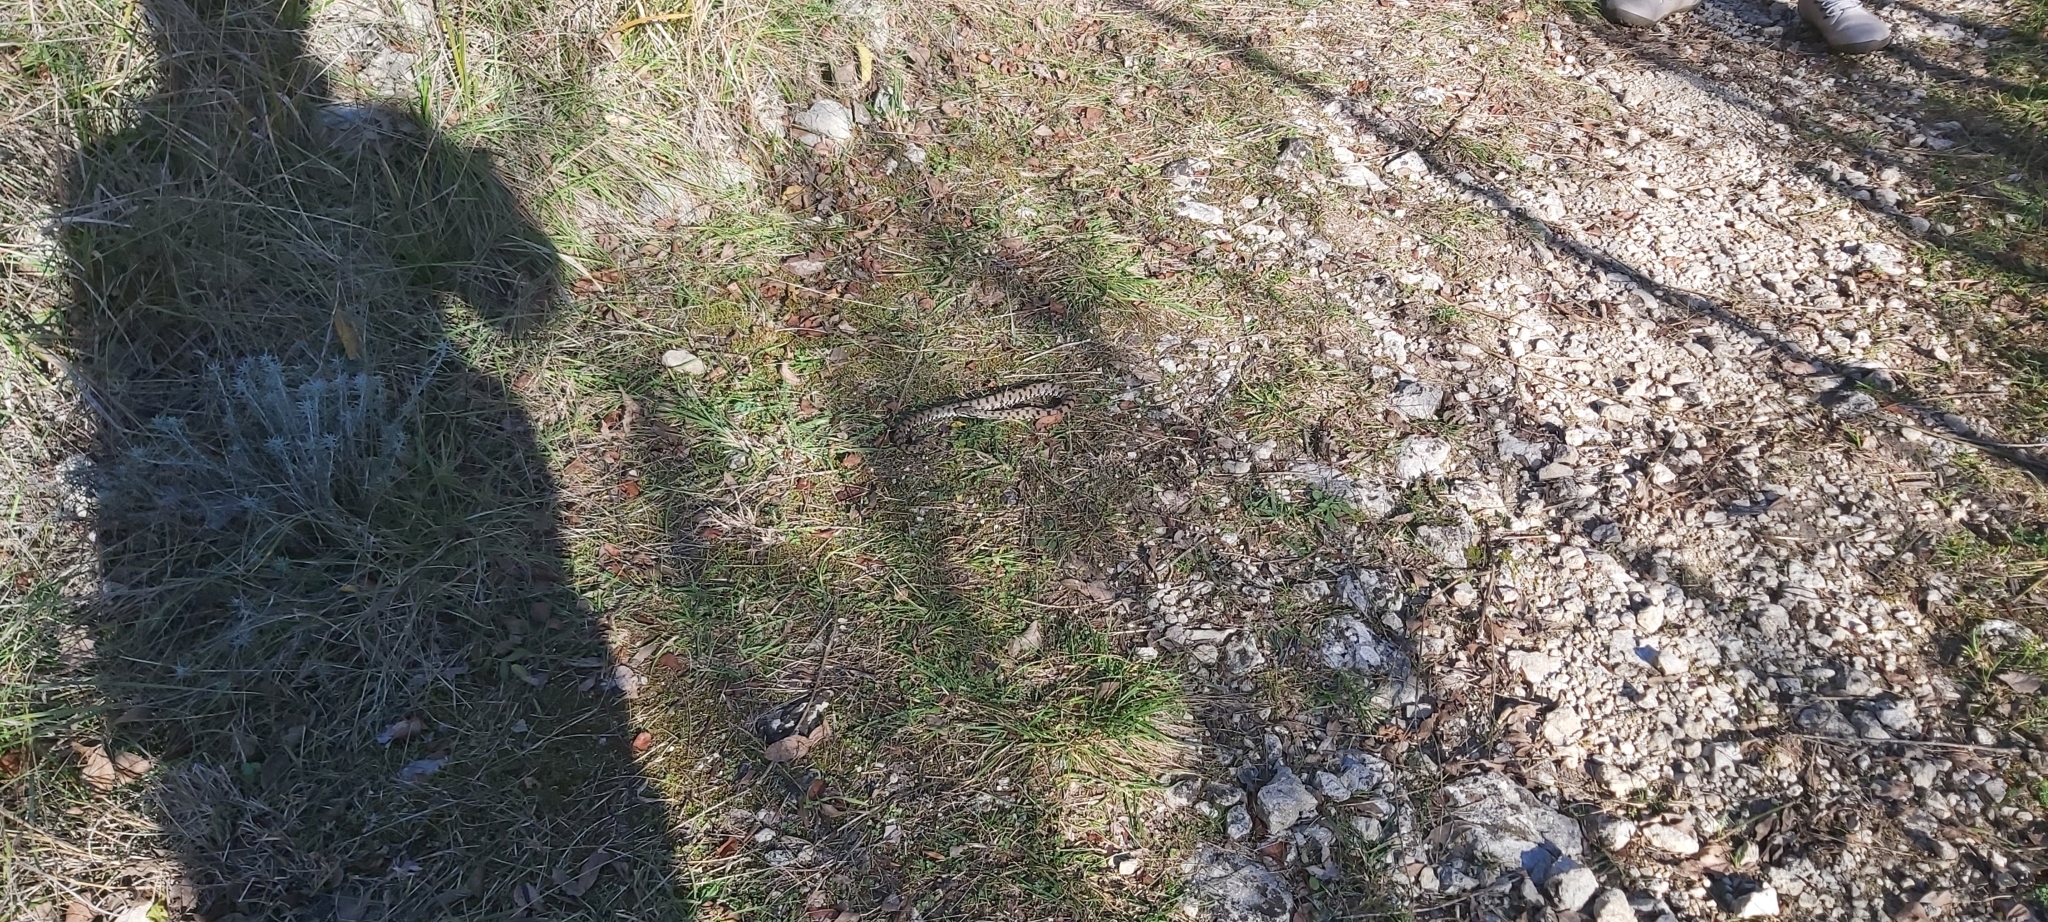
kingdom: Animalia
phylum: Chordata
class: Squamata
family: Viperidae
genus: Vipera
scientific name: Vipera aspis
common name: Asp viper
